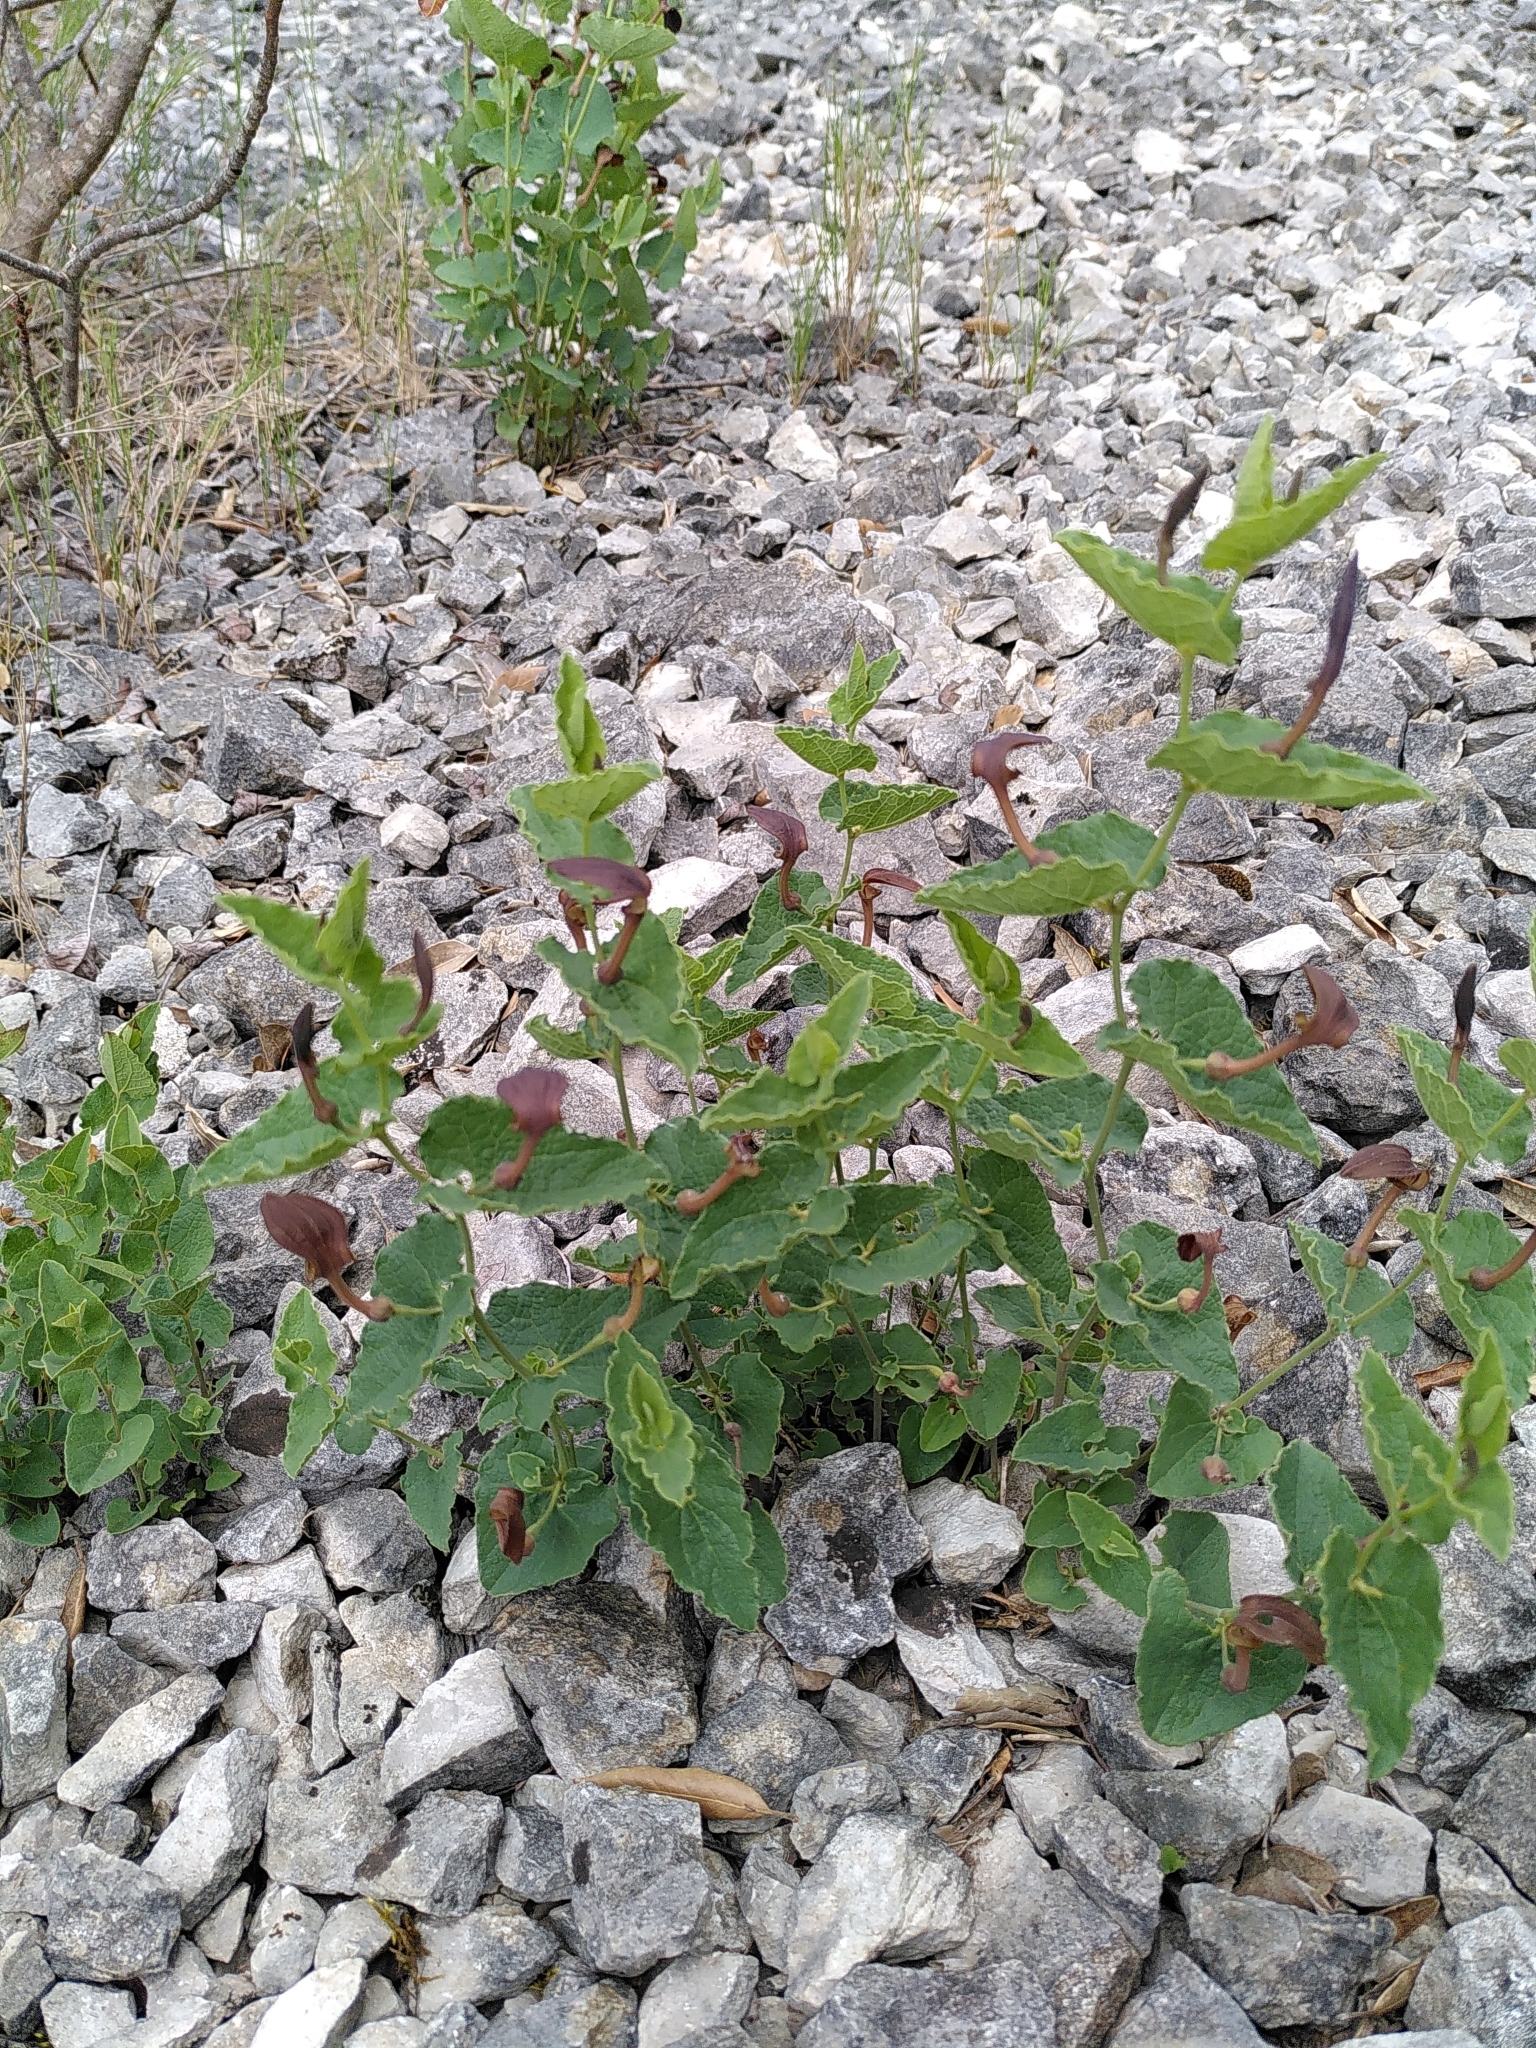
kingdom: Plantae
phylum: Tracheophyta
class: Magnoliopsida
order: Piperales
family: Aristolochiaceae
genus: Aristolochia
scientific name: Aristolochia pistolochia
